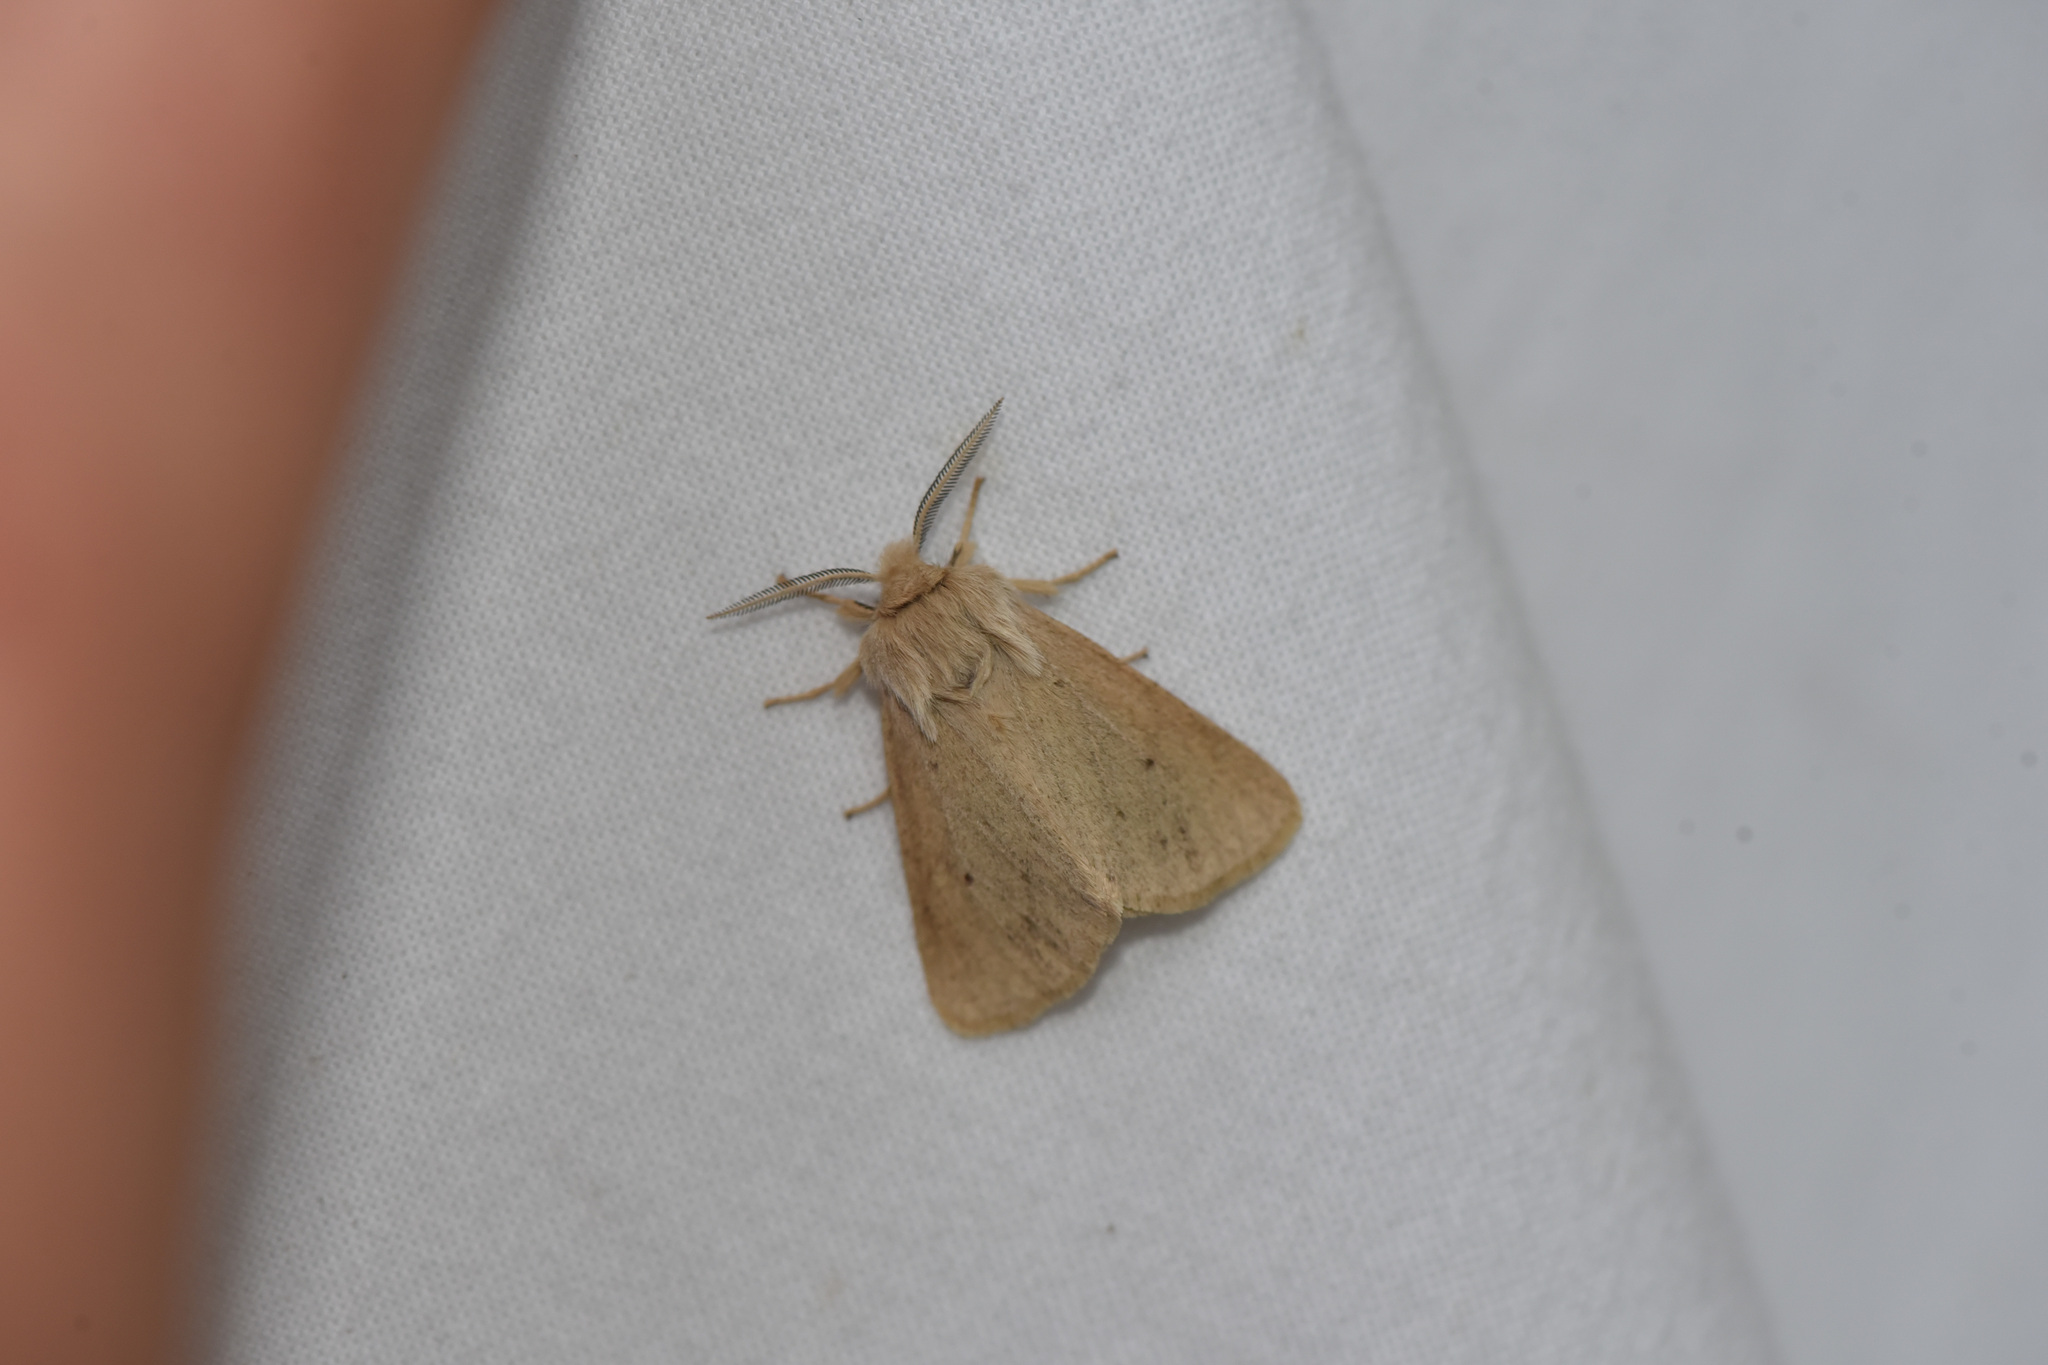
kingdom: Animalia
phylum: Arthropoda
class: Insecta
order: Lepidoptera
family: Erebidae
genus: Spilosoma
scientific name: Spilosoma vagans
